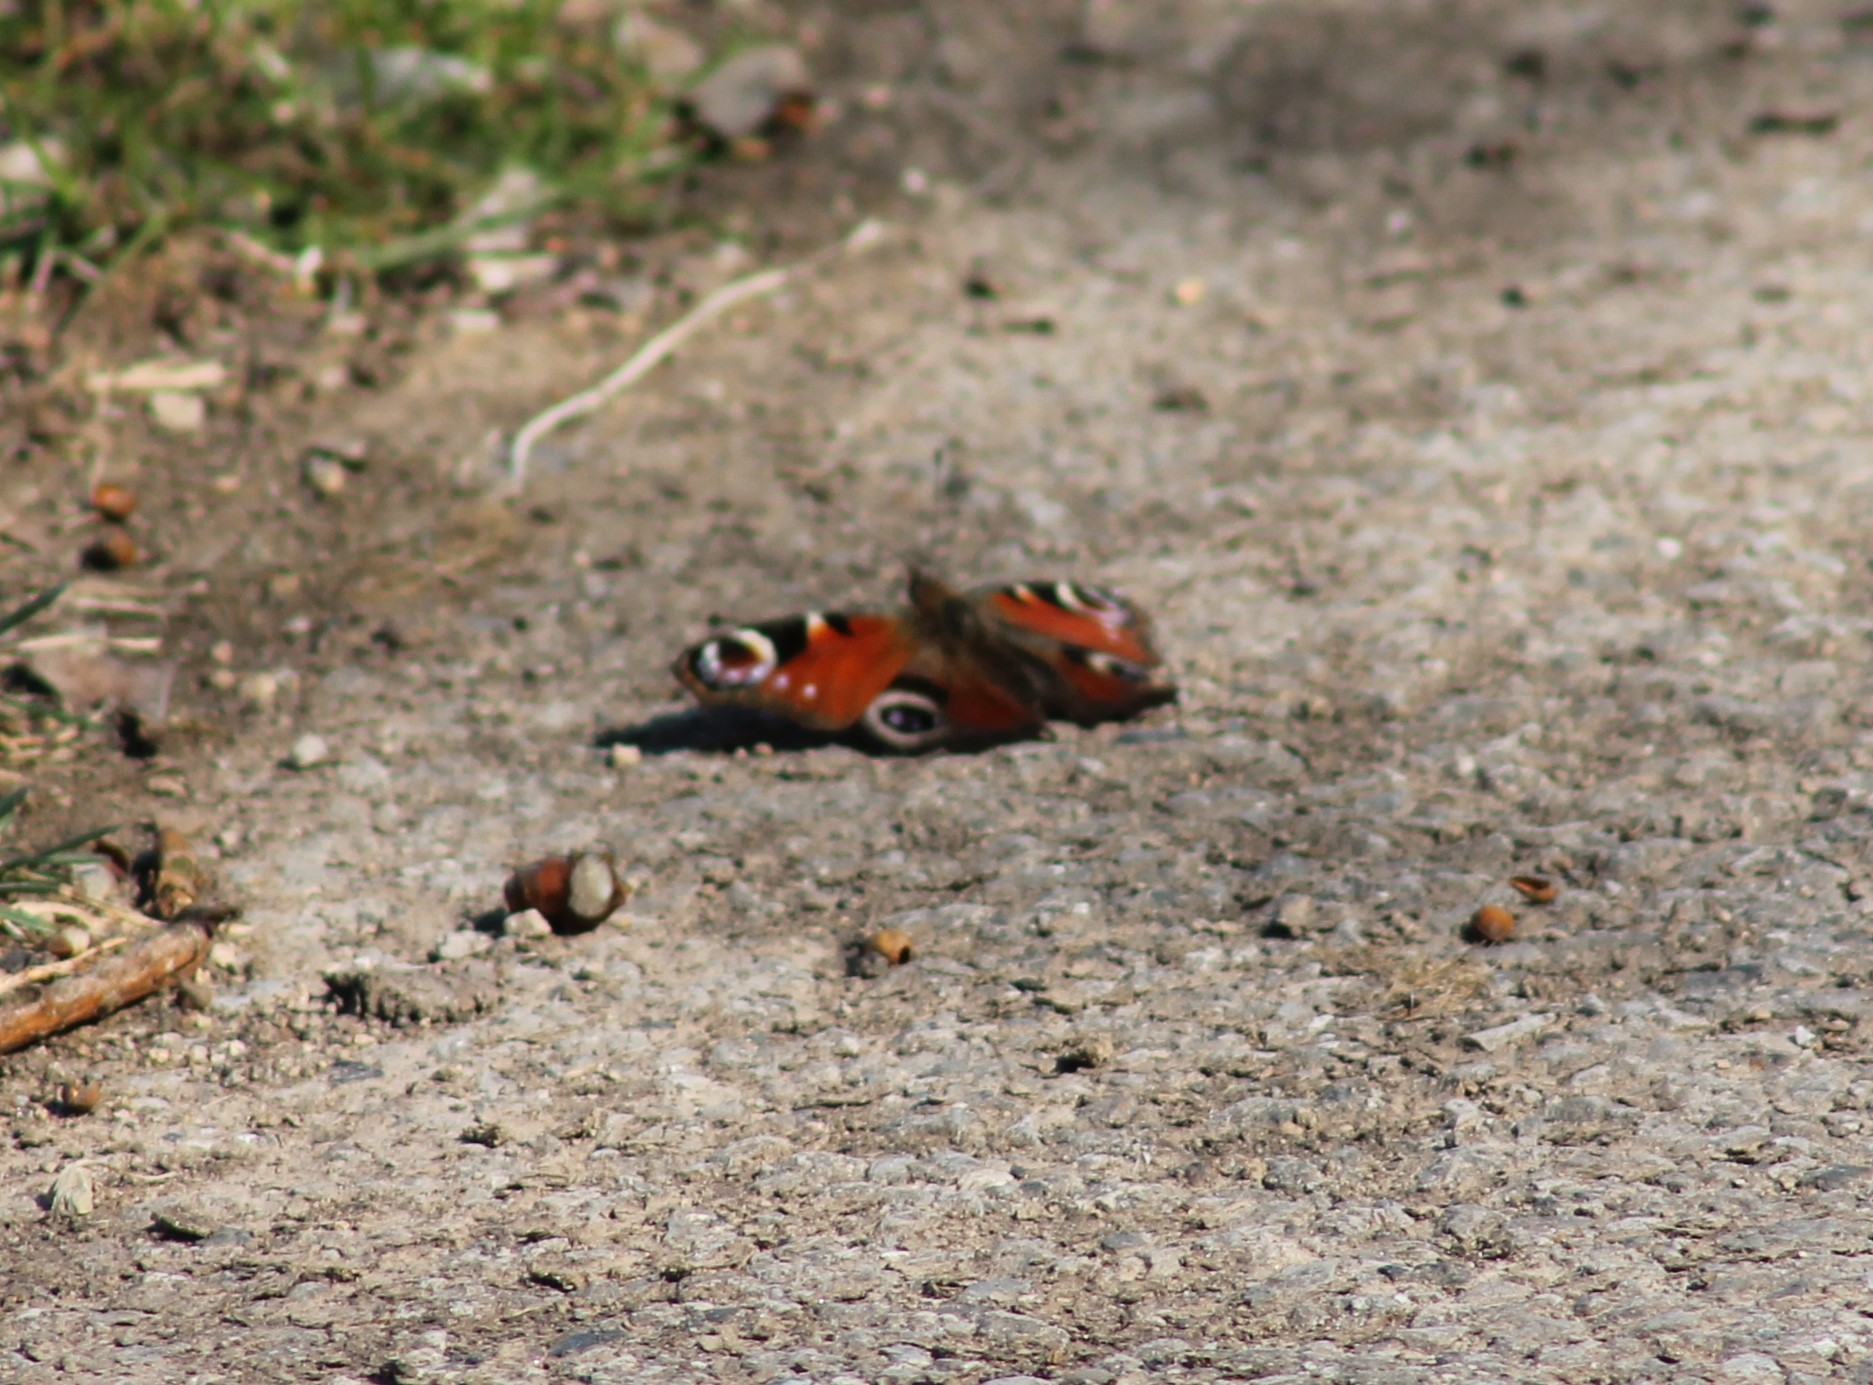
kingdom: Animalia
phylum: Arthropoda
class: Insecta
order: Lepidoptera
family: Nymphalidae
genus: Aglais
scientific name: Aglais io
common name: Peacock
